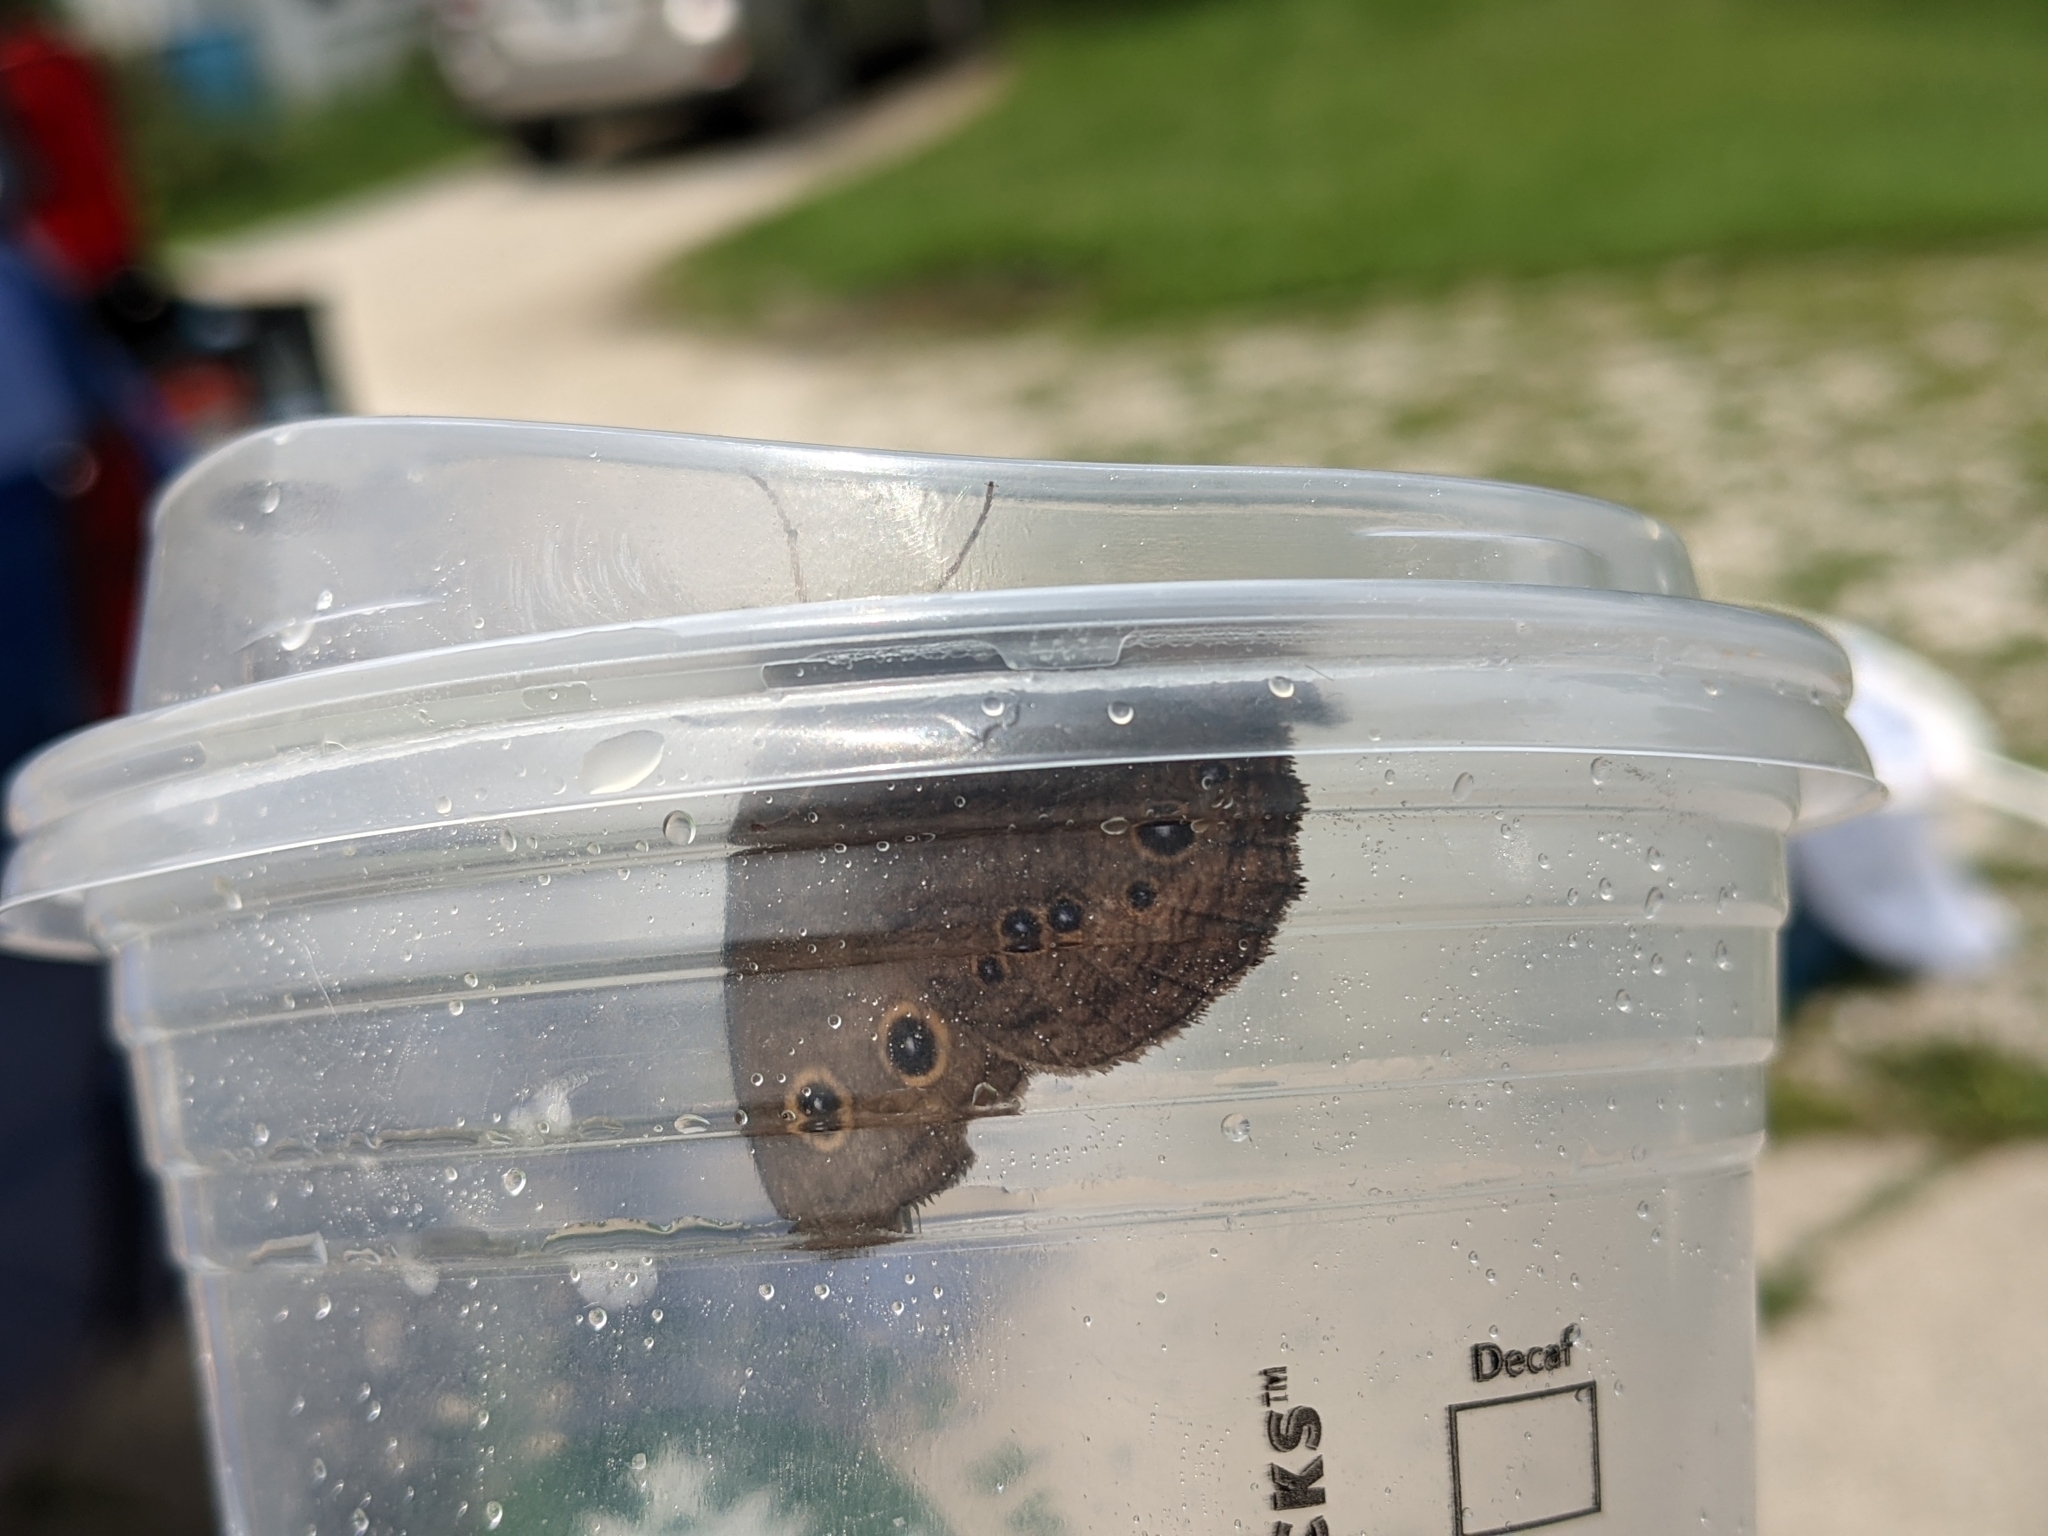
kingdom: Animalia
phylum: Arthropoda
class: Insecta
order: Lepidoptera
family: Nymphalidae
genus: Cercyonis
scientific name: Cercyonis pegala
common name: Common wood-nymph
